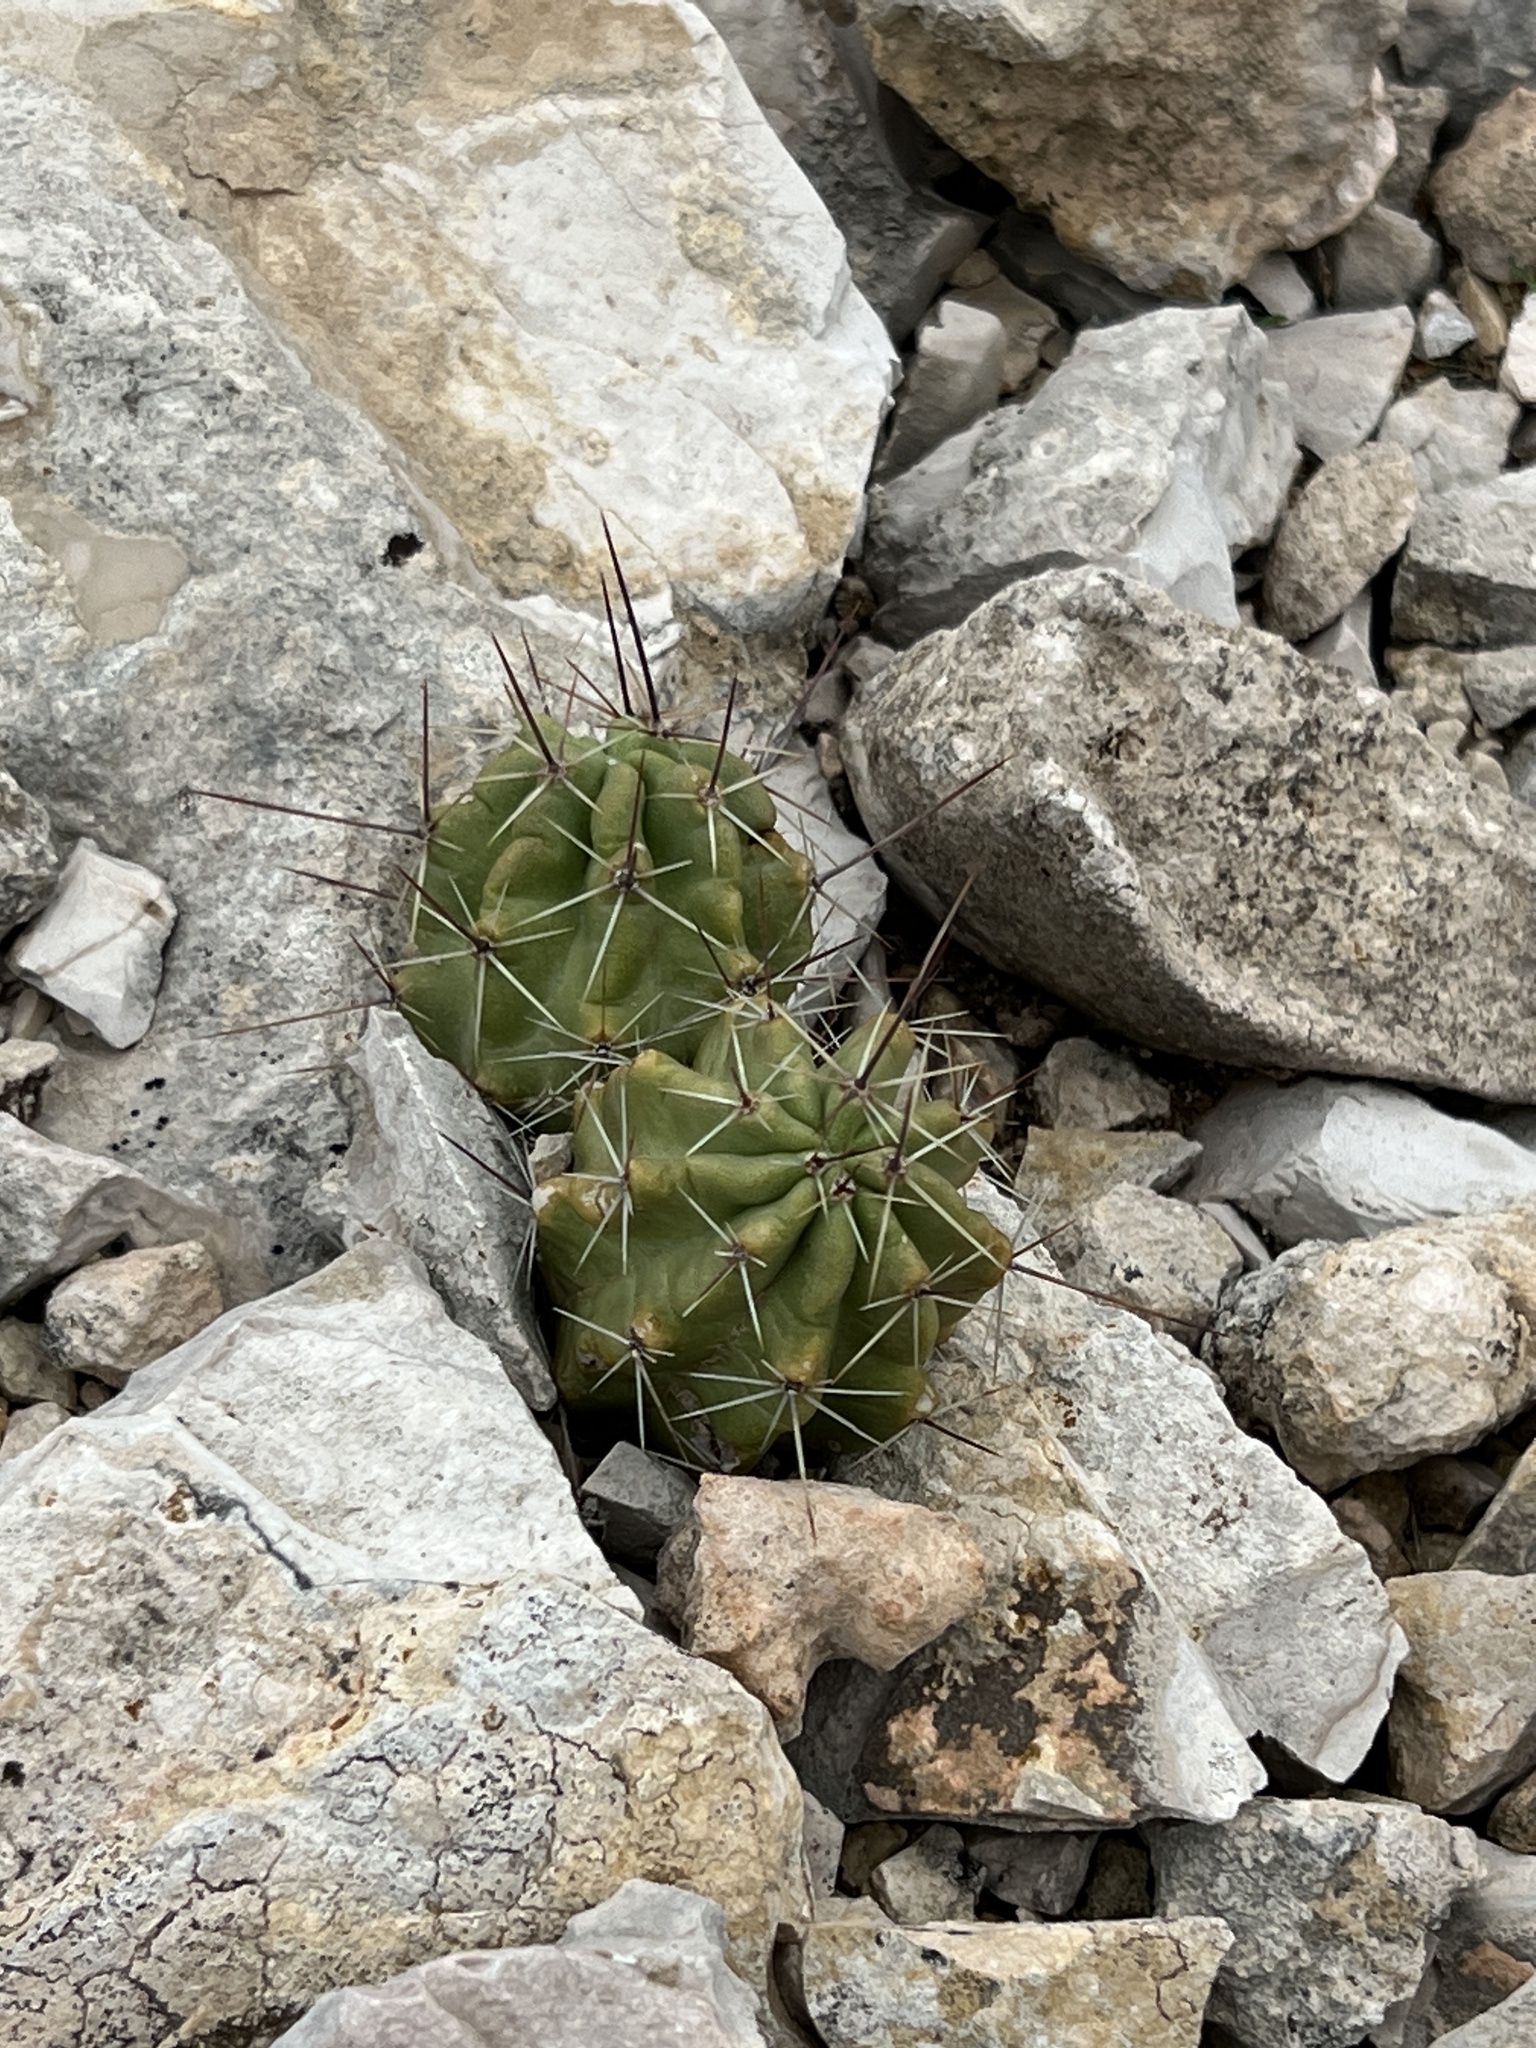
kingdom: Plantae
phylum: Tracheophyta
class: Magnoliopsida
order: Caryophyllales
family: Cactaceae
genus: Echinocereus
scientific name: Echinocereus enneacanthus
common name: Pitaya
